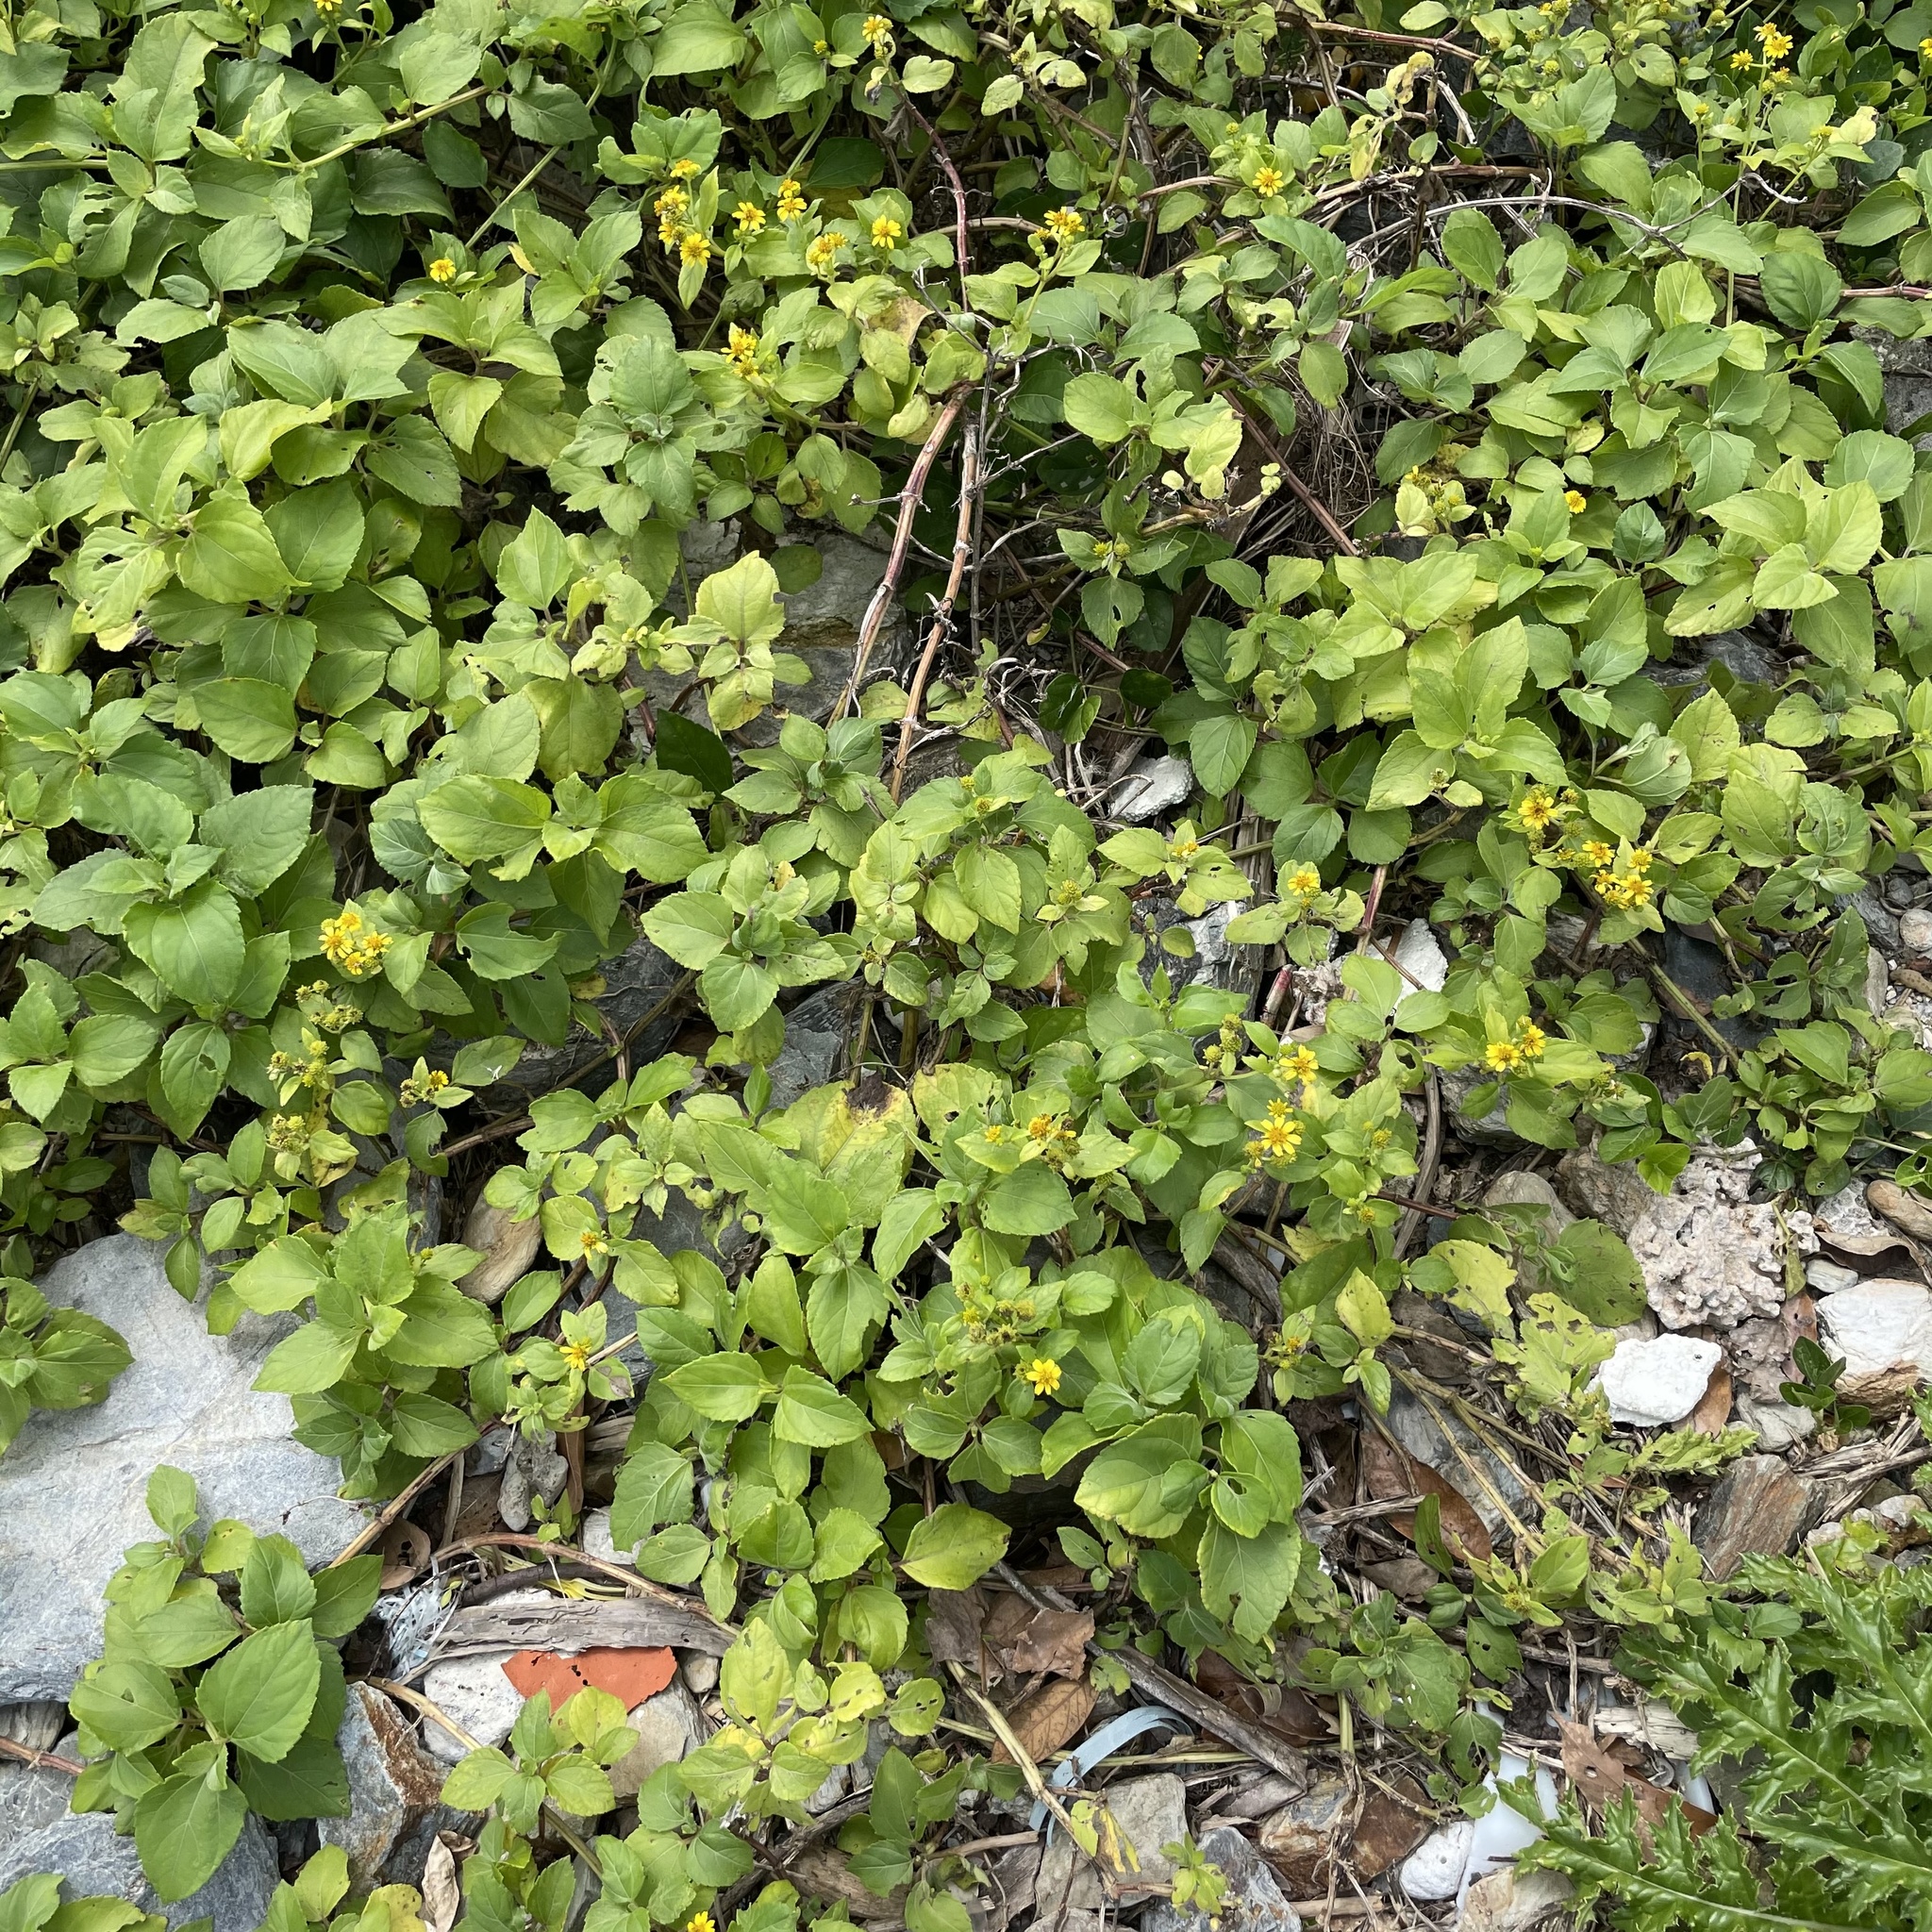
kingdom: Plantae
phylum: Tracheophyta
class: Magnoliopsida
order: Asterales
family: Asteraceae
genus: Wollastonia
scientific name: Wollastonia biflora
